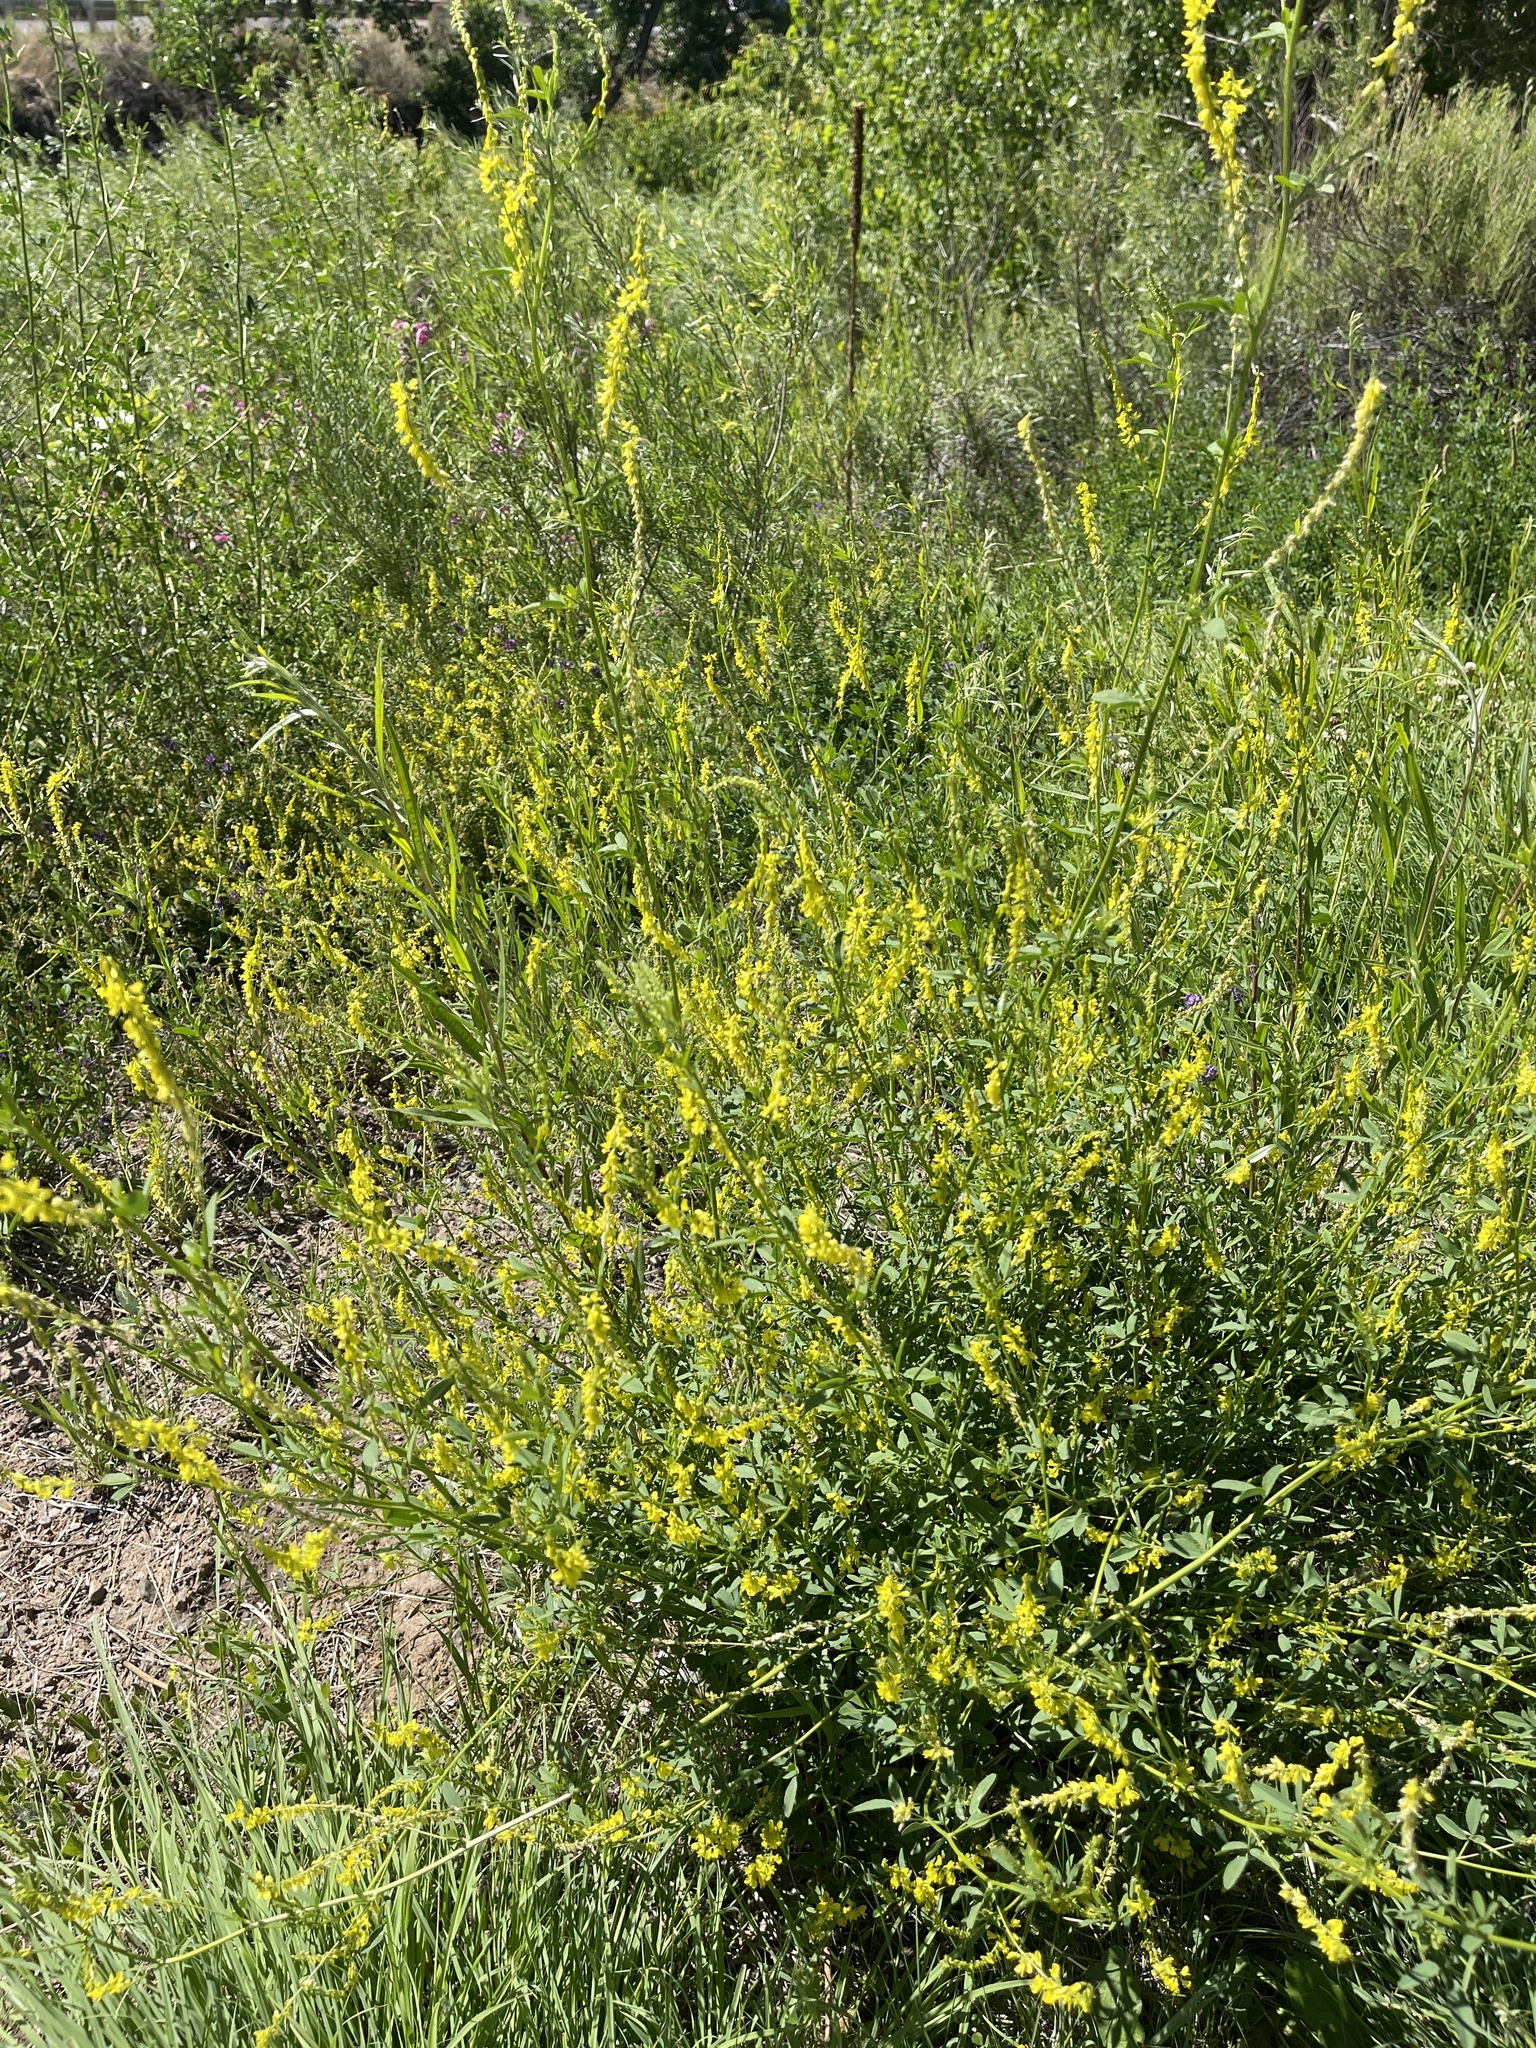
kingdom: Plantae
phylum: Tracheophyta
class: Magnoliopsida
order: Fabales
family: Fabaceae
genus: Melilotus
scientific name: Melilotus officinalis
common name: Sweetclover
